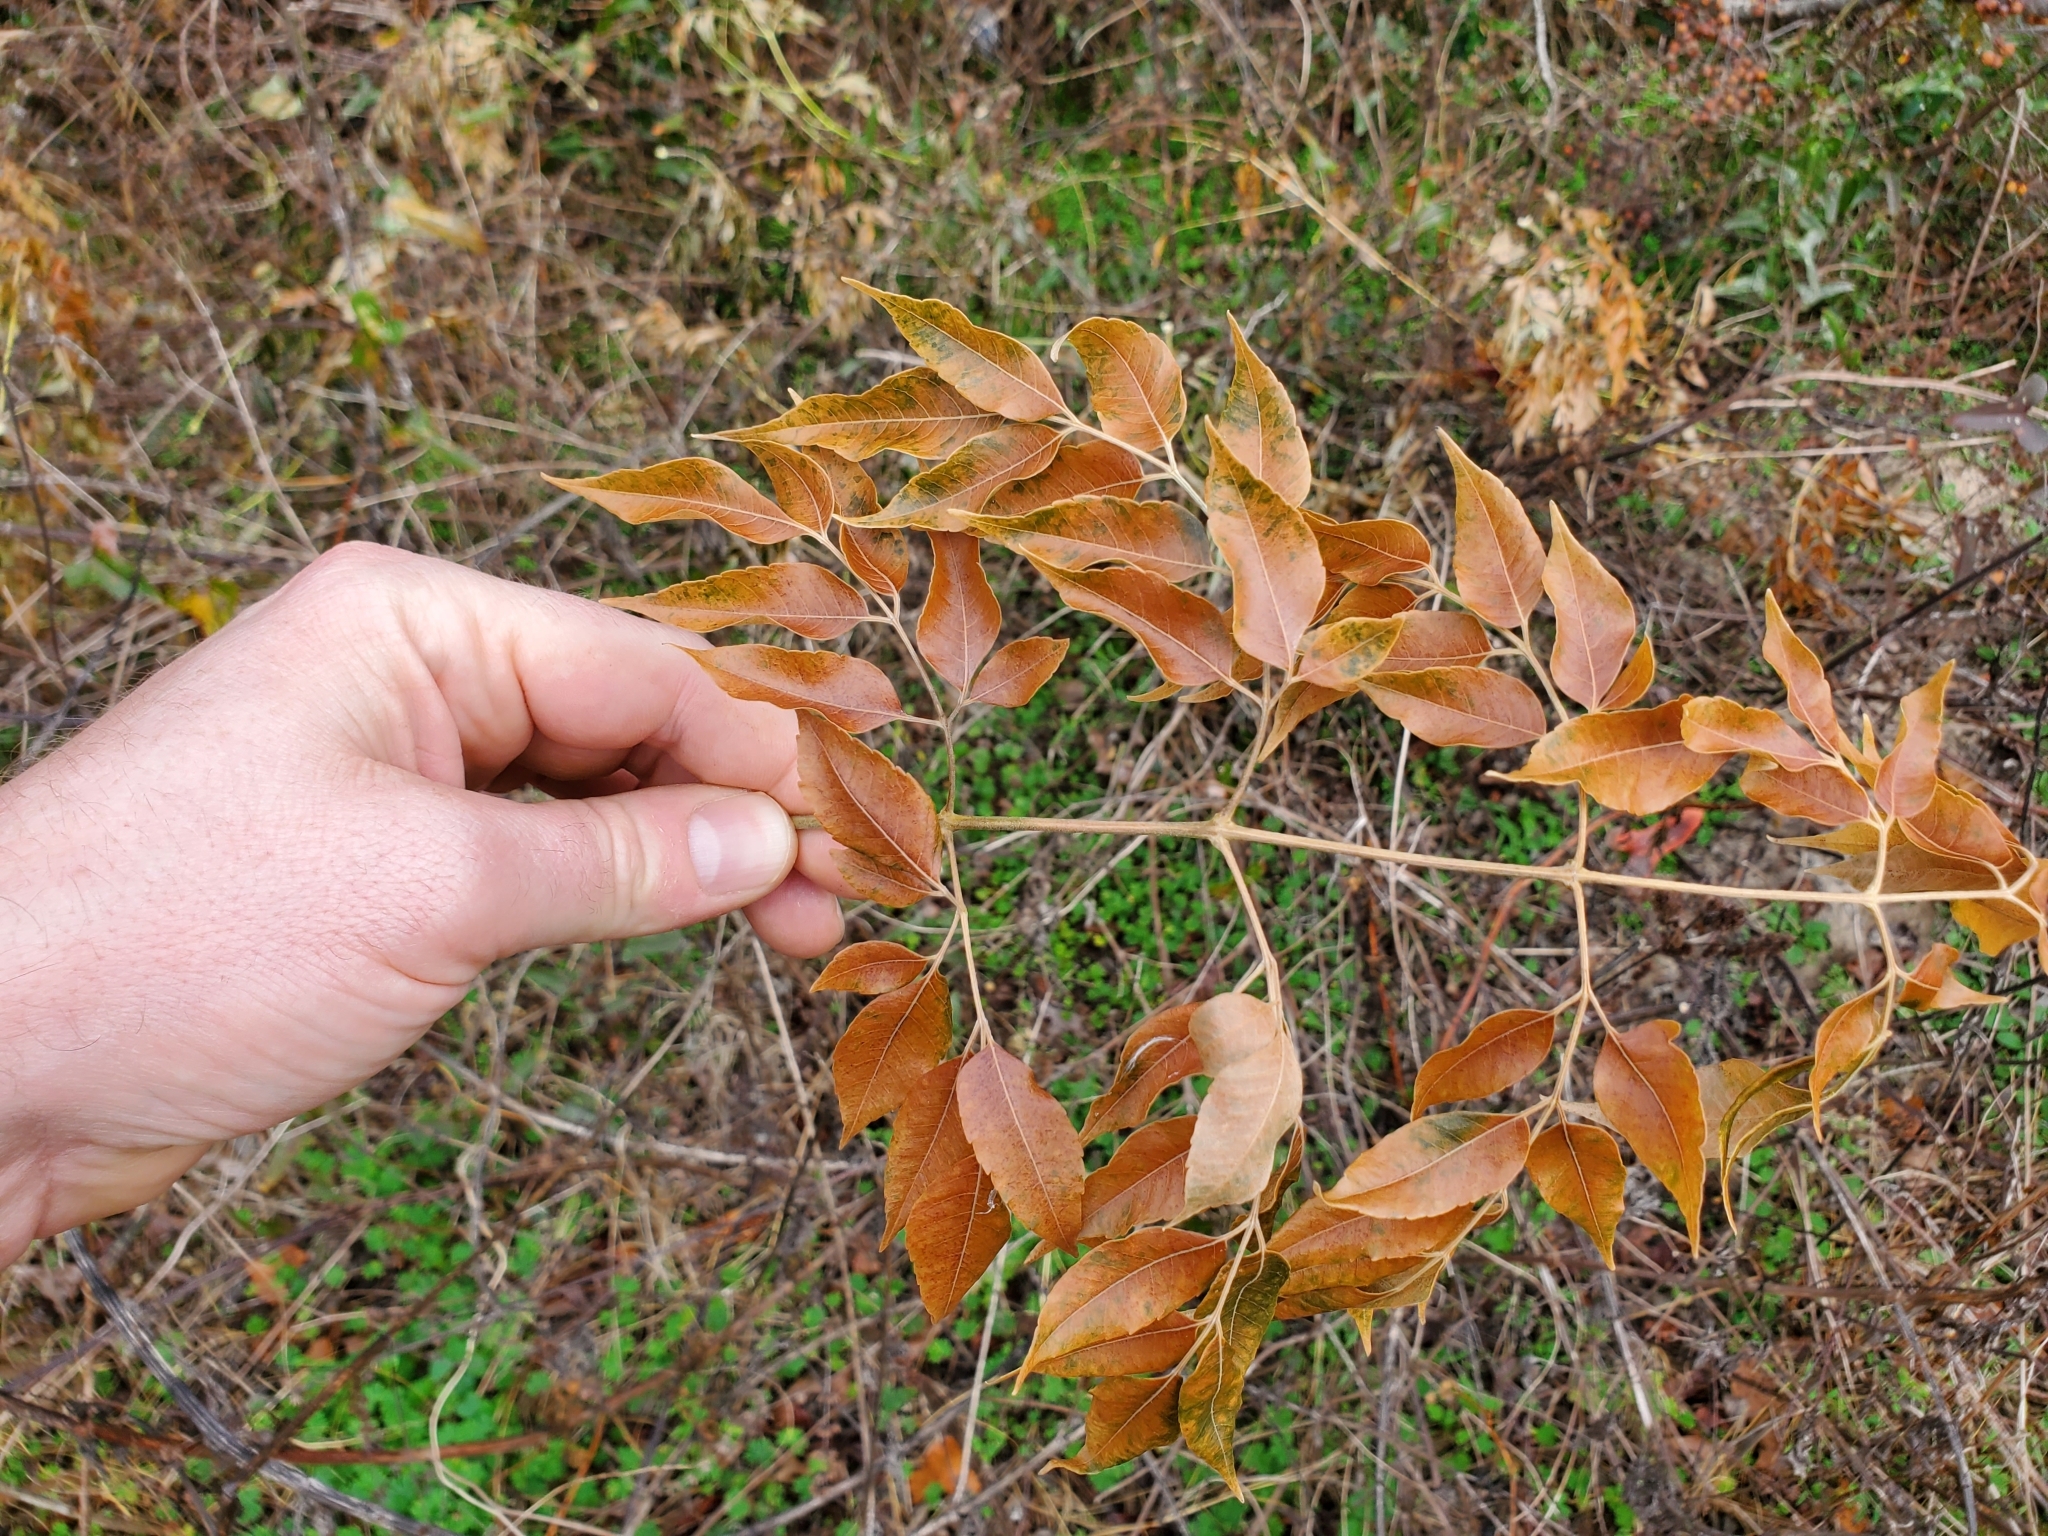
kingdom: Plantae
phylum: Tracheophyta
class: Magnoliopsida
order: Sapindales
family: Meliaceae
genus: Melia
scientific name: Melia azedarach
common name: Chinaberrytree
